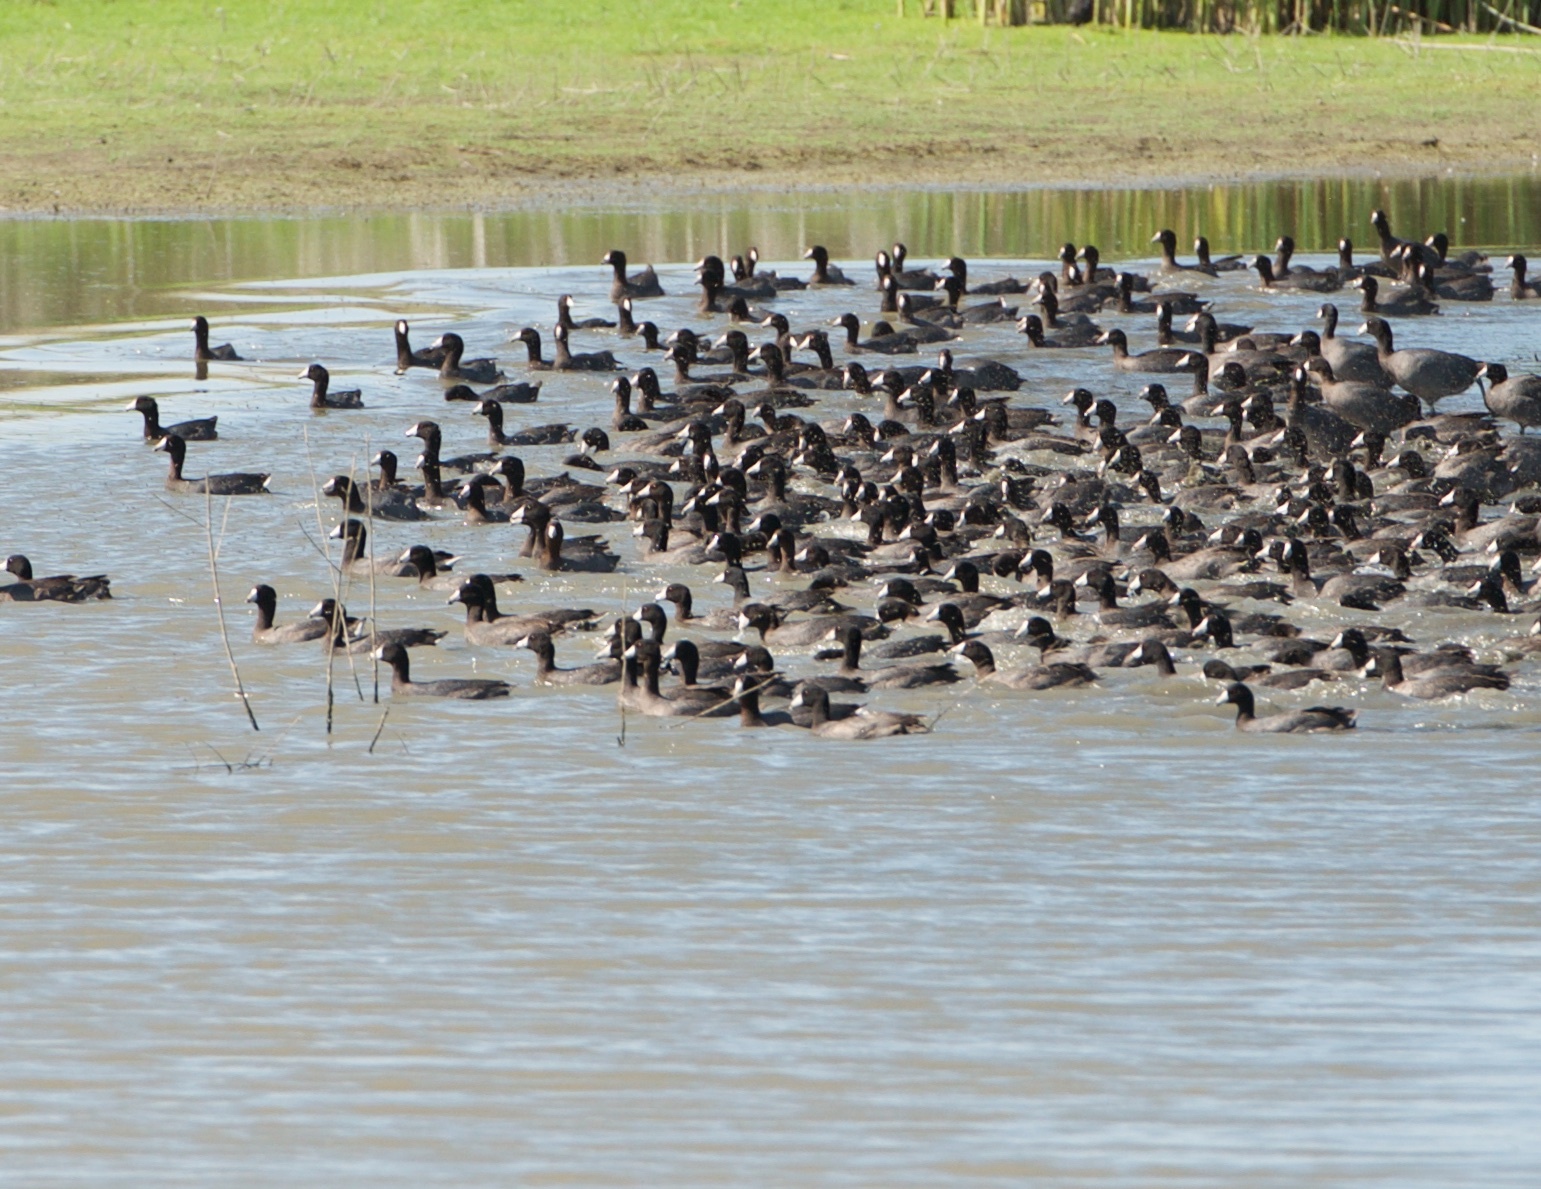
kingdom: Animalia
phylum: Chordata
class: Aves
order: Gruiformes
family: Rallidae
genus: Fulica
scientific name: Fulica americana
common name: American coot
